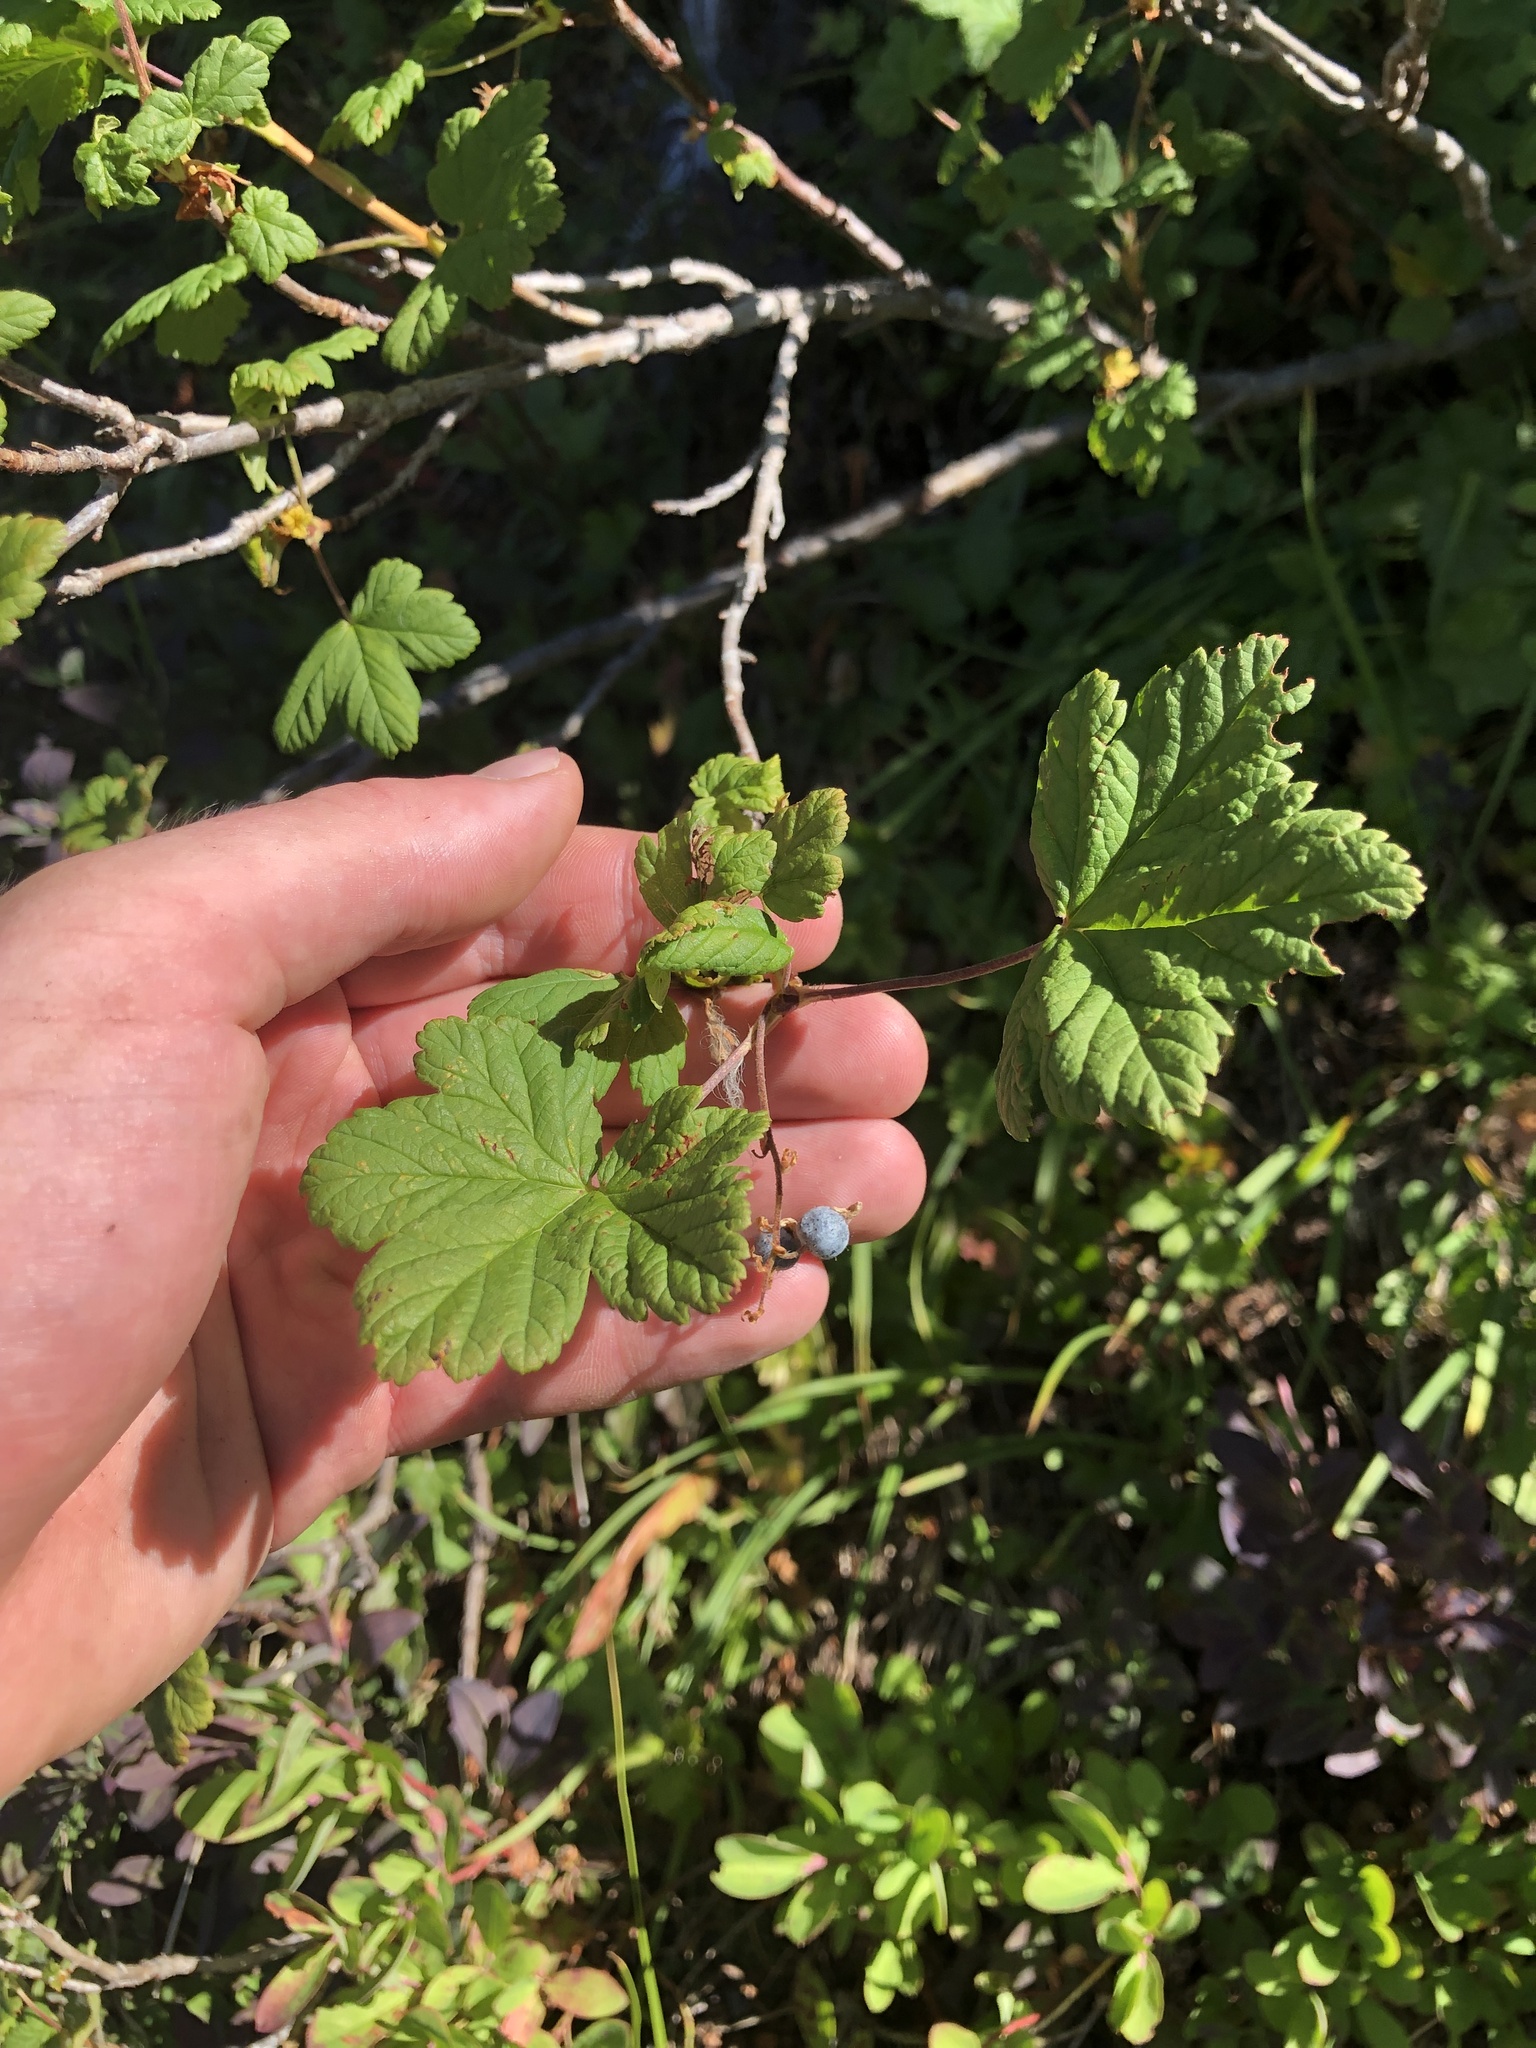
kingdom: Plantae
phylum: Tracheophyta
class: Magnoliopsida
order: Saxifragales
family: Grossulariaceae
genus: Ribes
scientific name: Ribes acerifolium
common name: Maple-leaved black currant
